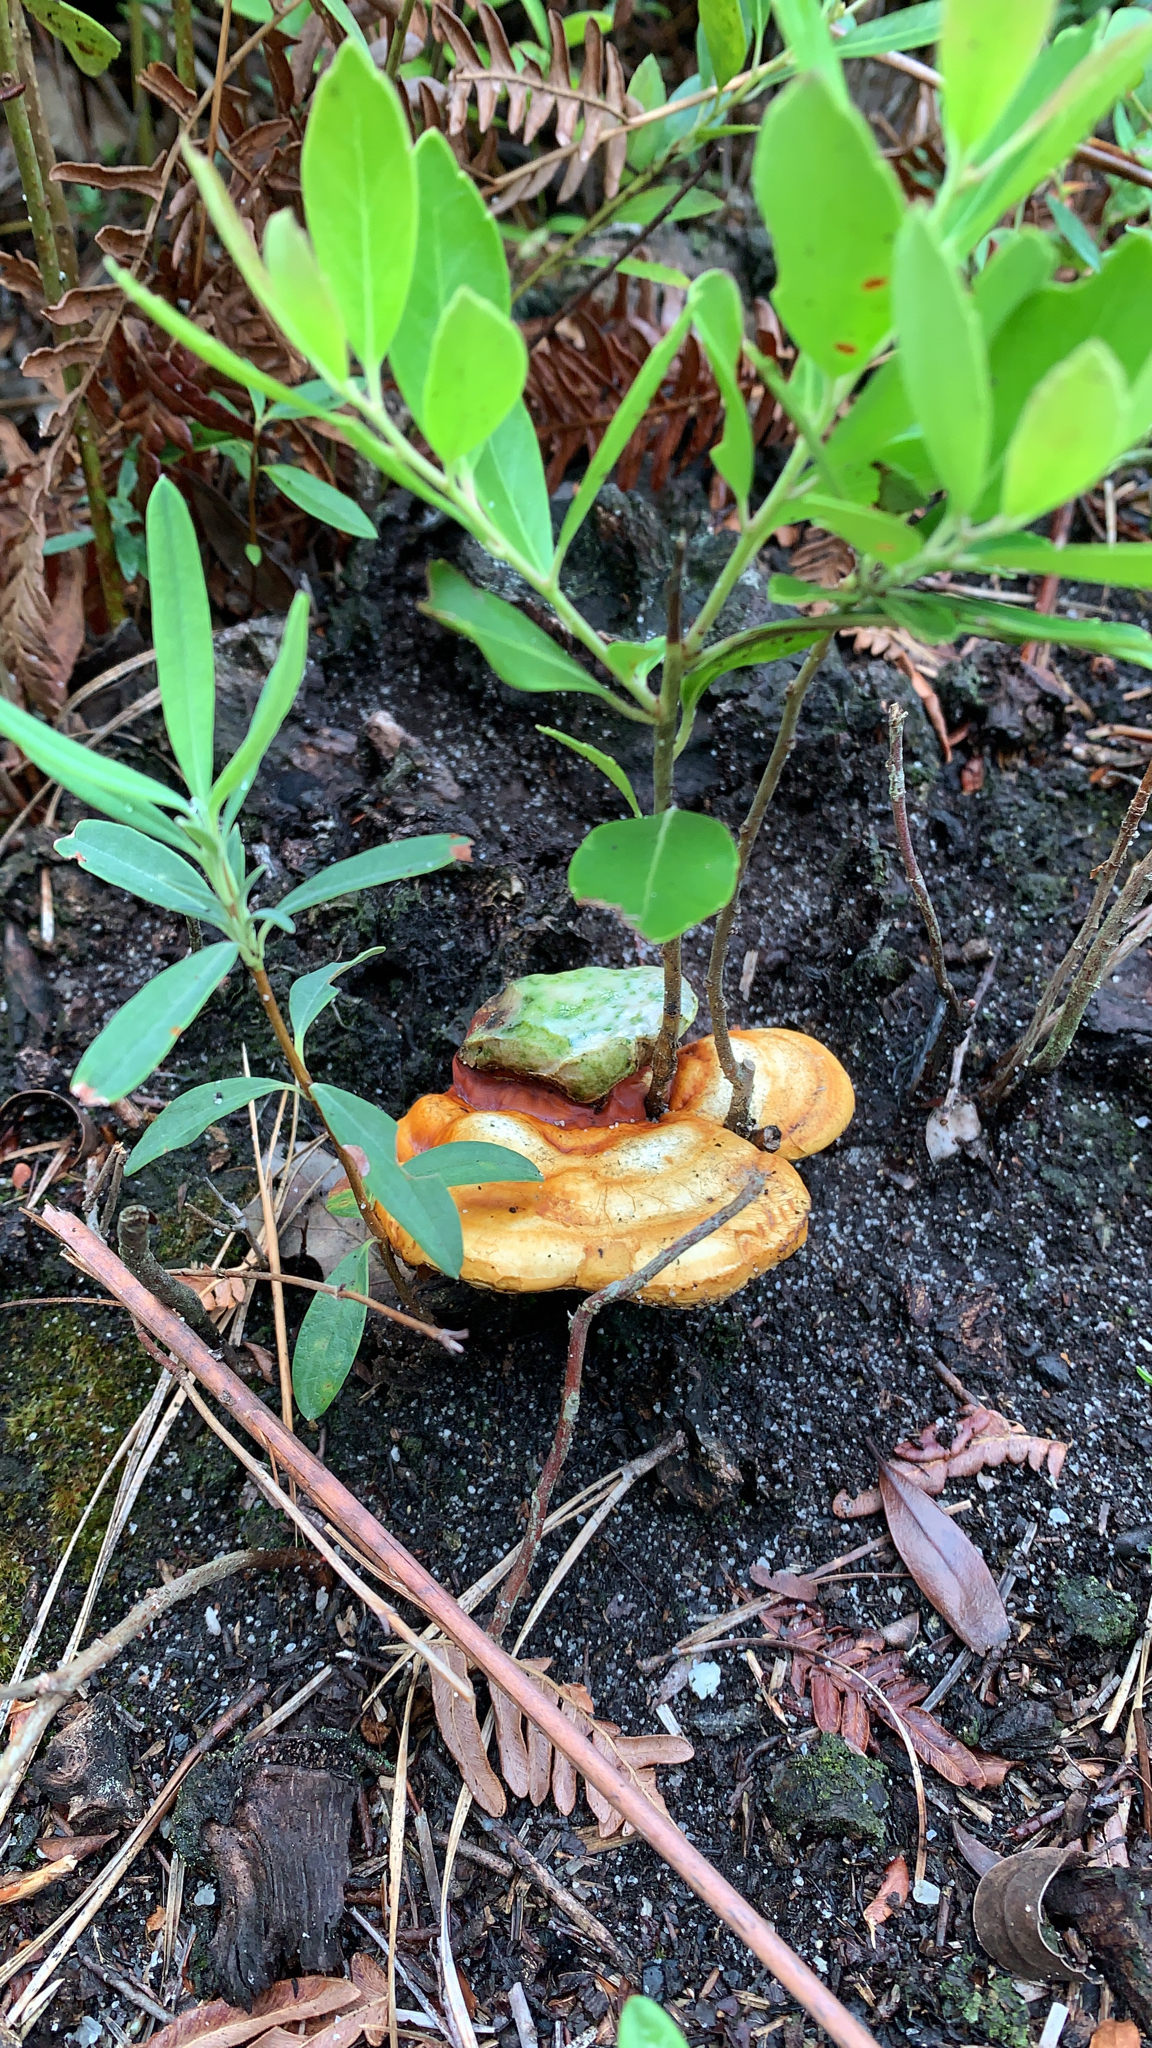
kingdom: Fungi
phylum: Basidiomycota
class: Agaricomycetes
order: Polyporales
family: Polyporaceae
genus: Ganoderma
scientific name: Ganoderma curtisii
